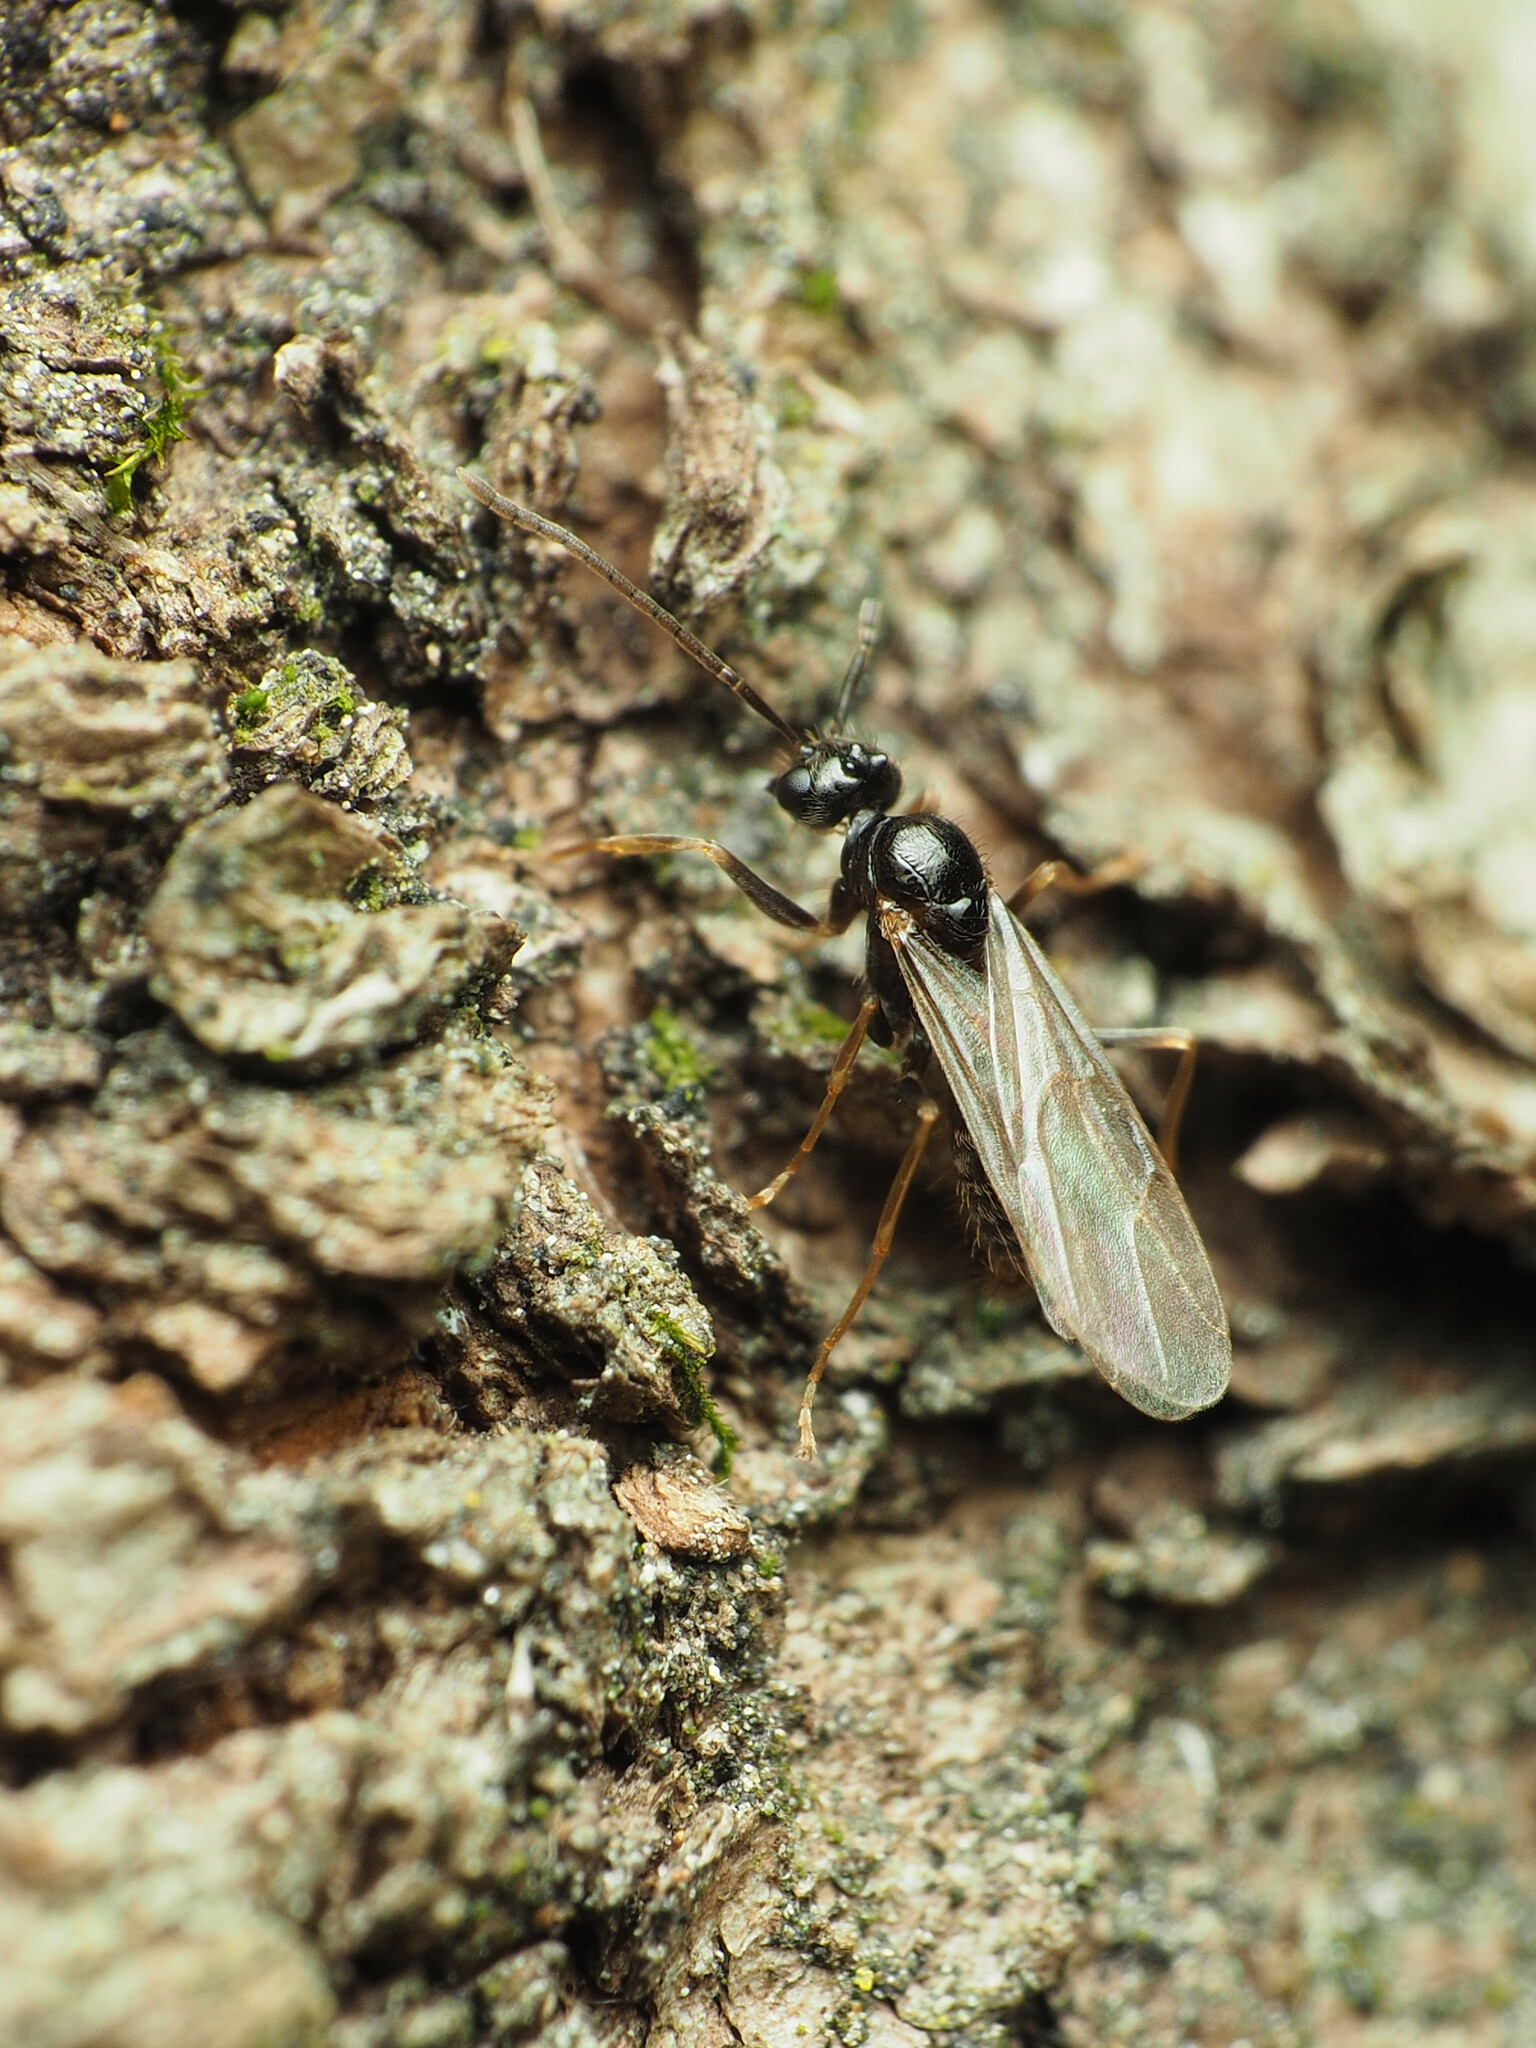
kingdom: Animalia
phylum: Arthropoda
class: Insecta
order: Hymenoptera
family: Formicidae
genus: Prenolepis
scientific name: Prenolepis imparis
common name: Small honey ant
